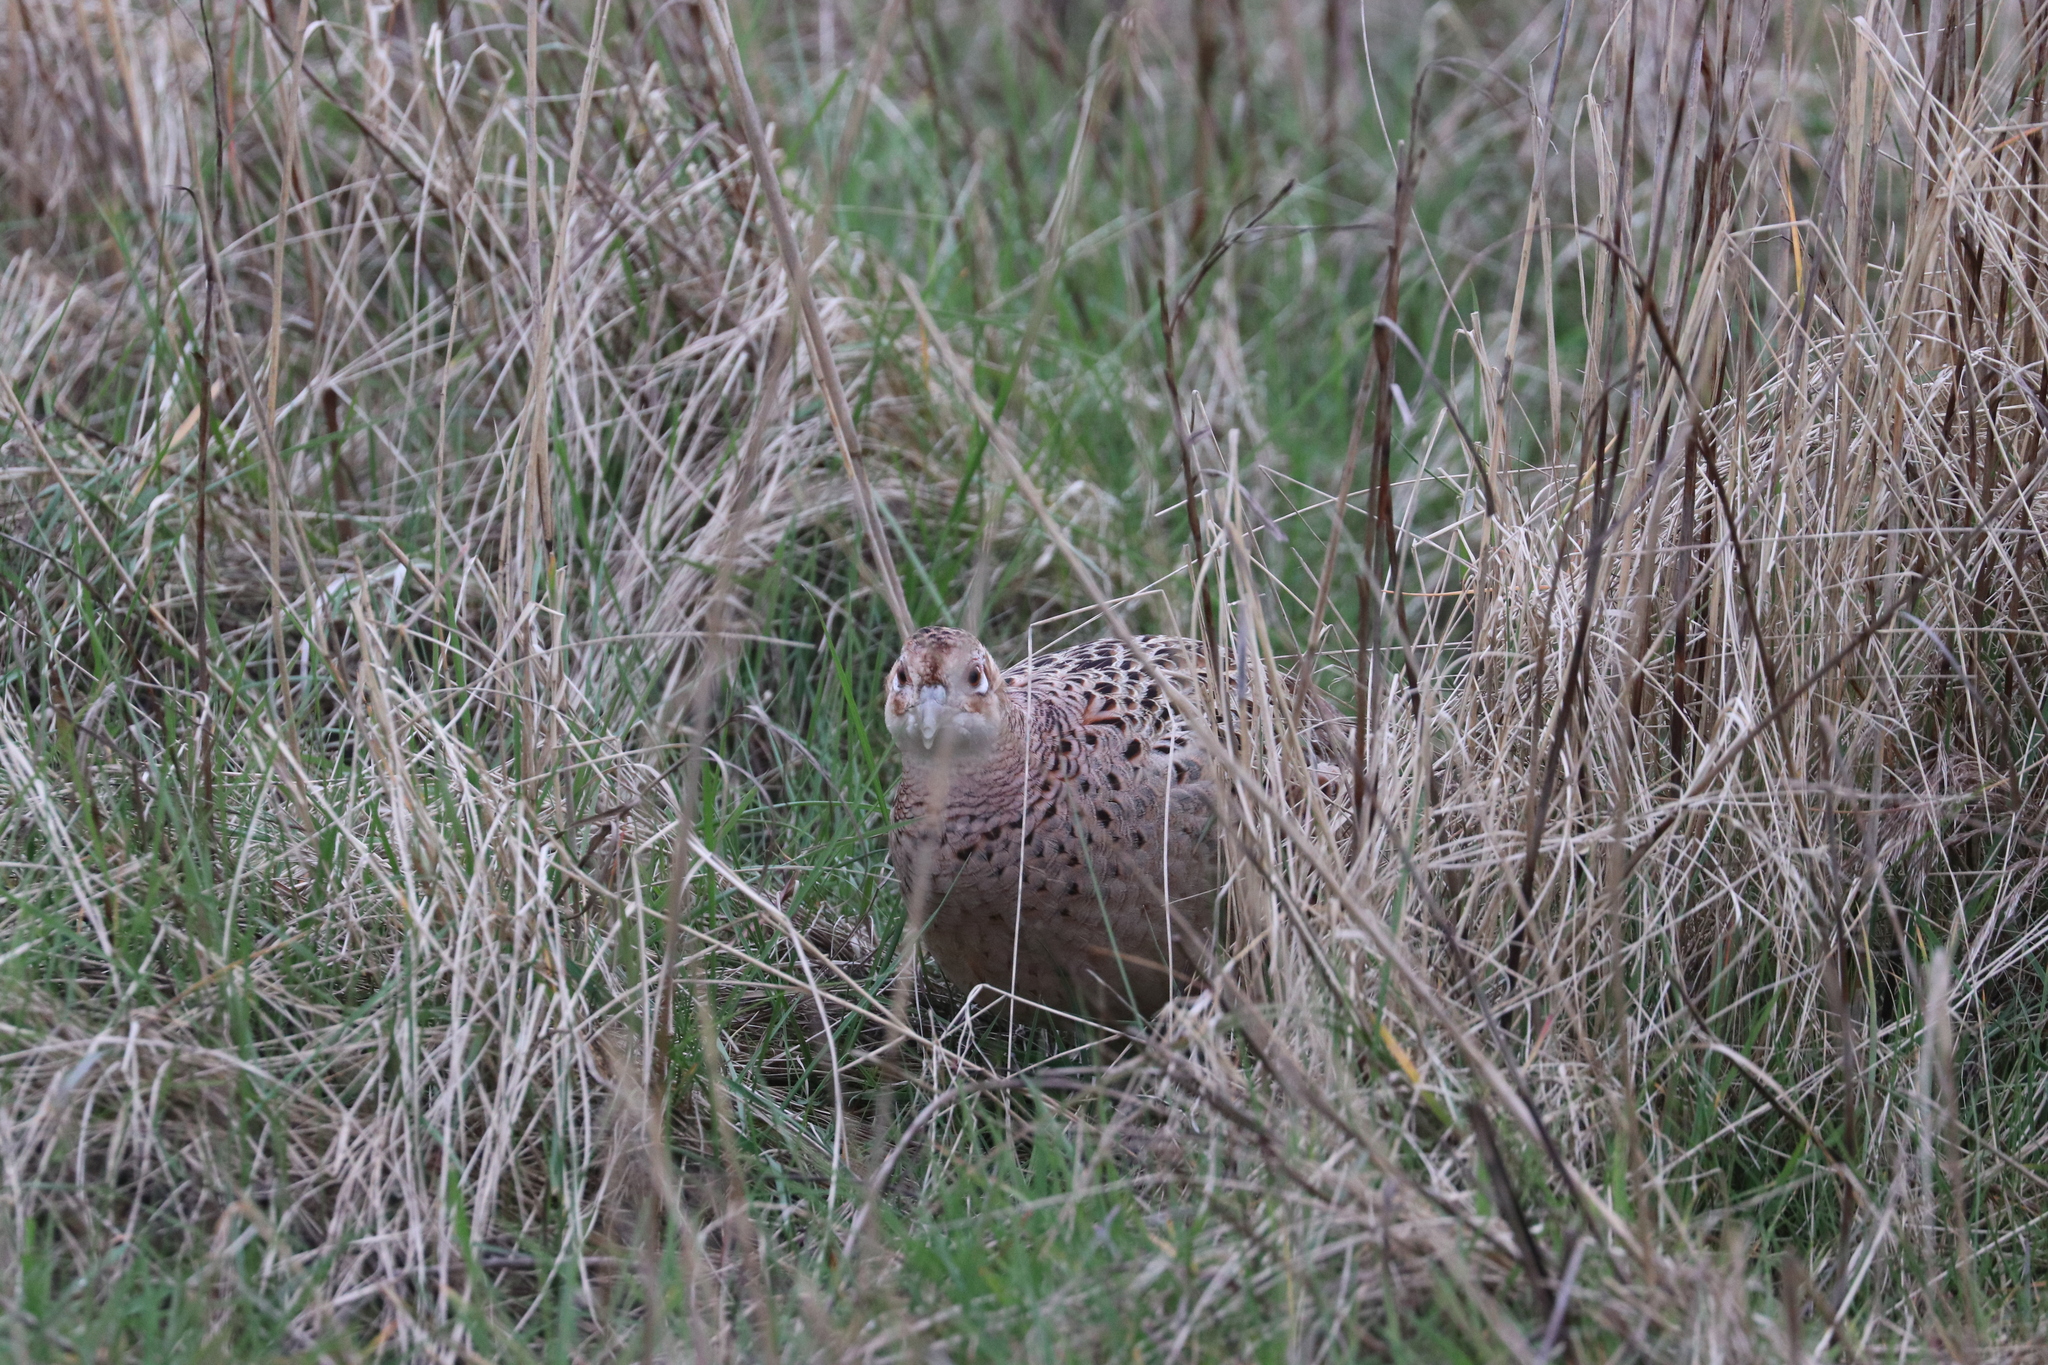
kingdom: Animalia
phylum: Chordata
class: Aves
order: Galliformes
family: Phasianidae
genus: Phasianus
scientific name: Phasianus colchicus
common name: Common pheasant
